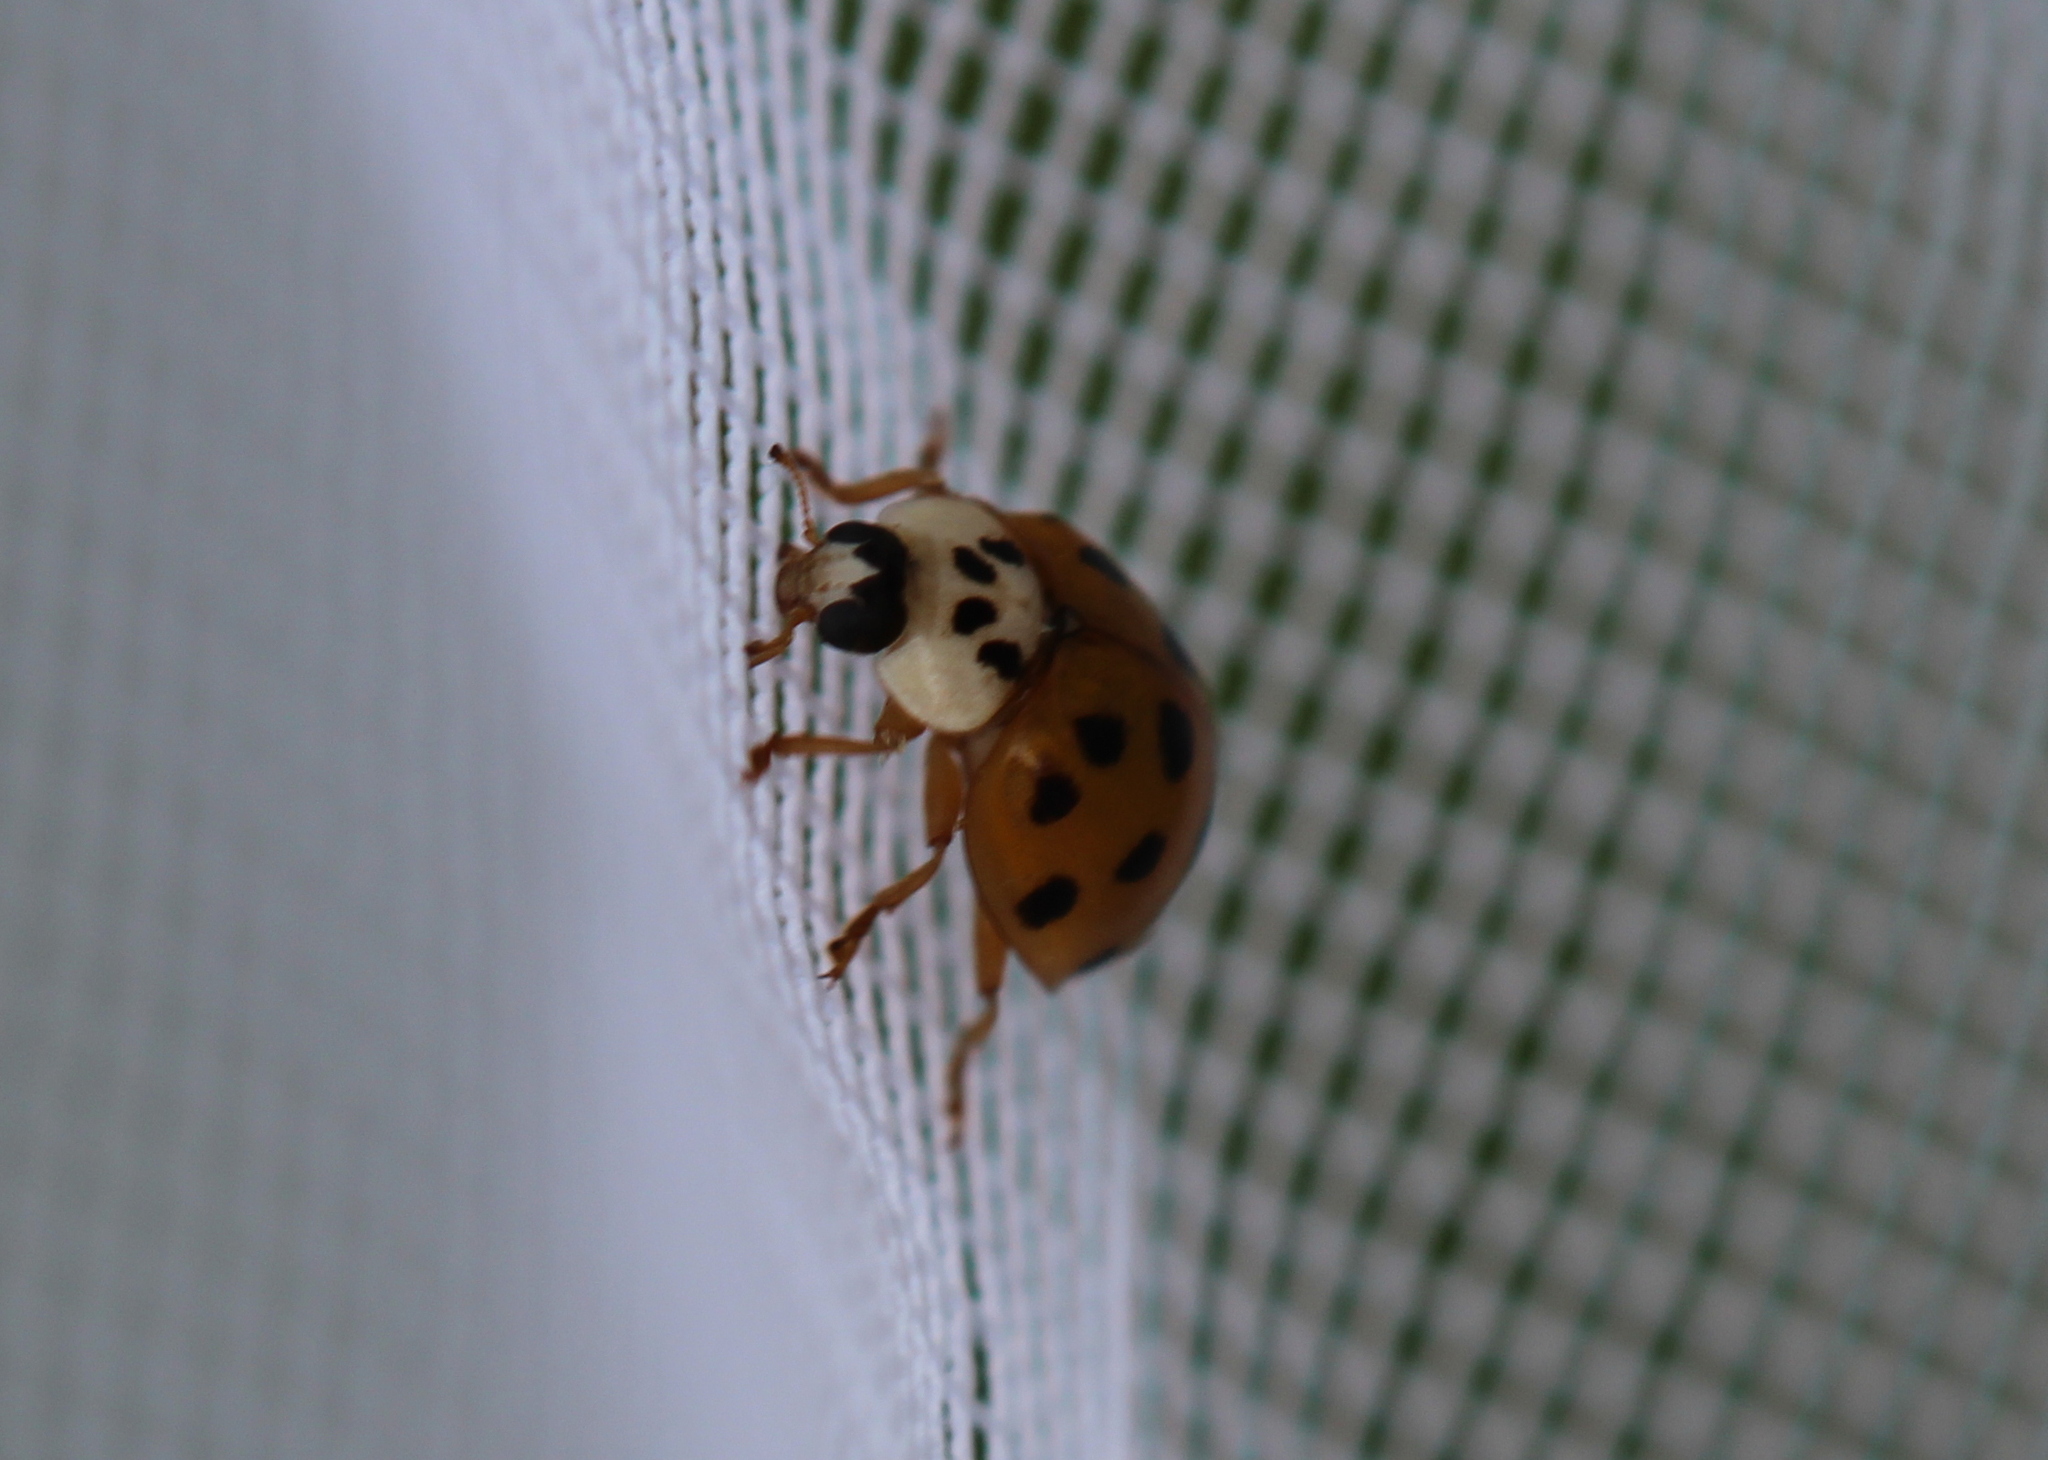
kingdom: Animalia
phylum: Arthropoda
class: Insecta
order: Coleoptera
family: Coccinellidae
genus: Harmonia
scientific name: Harmonia axyridis
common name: Harlequin ladybird
